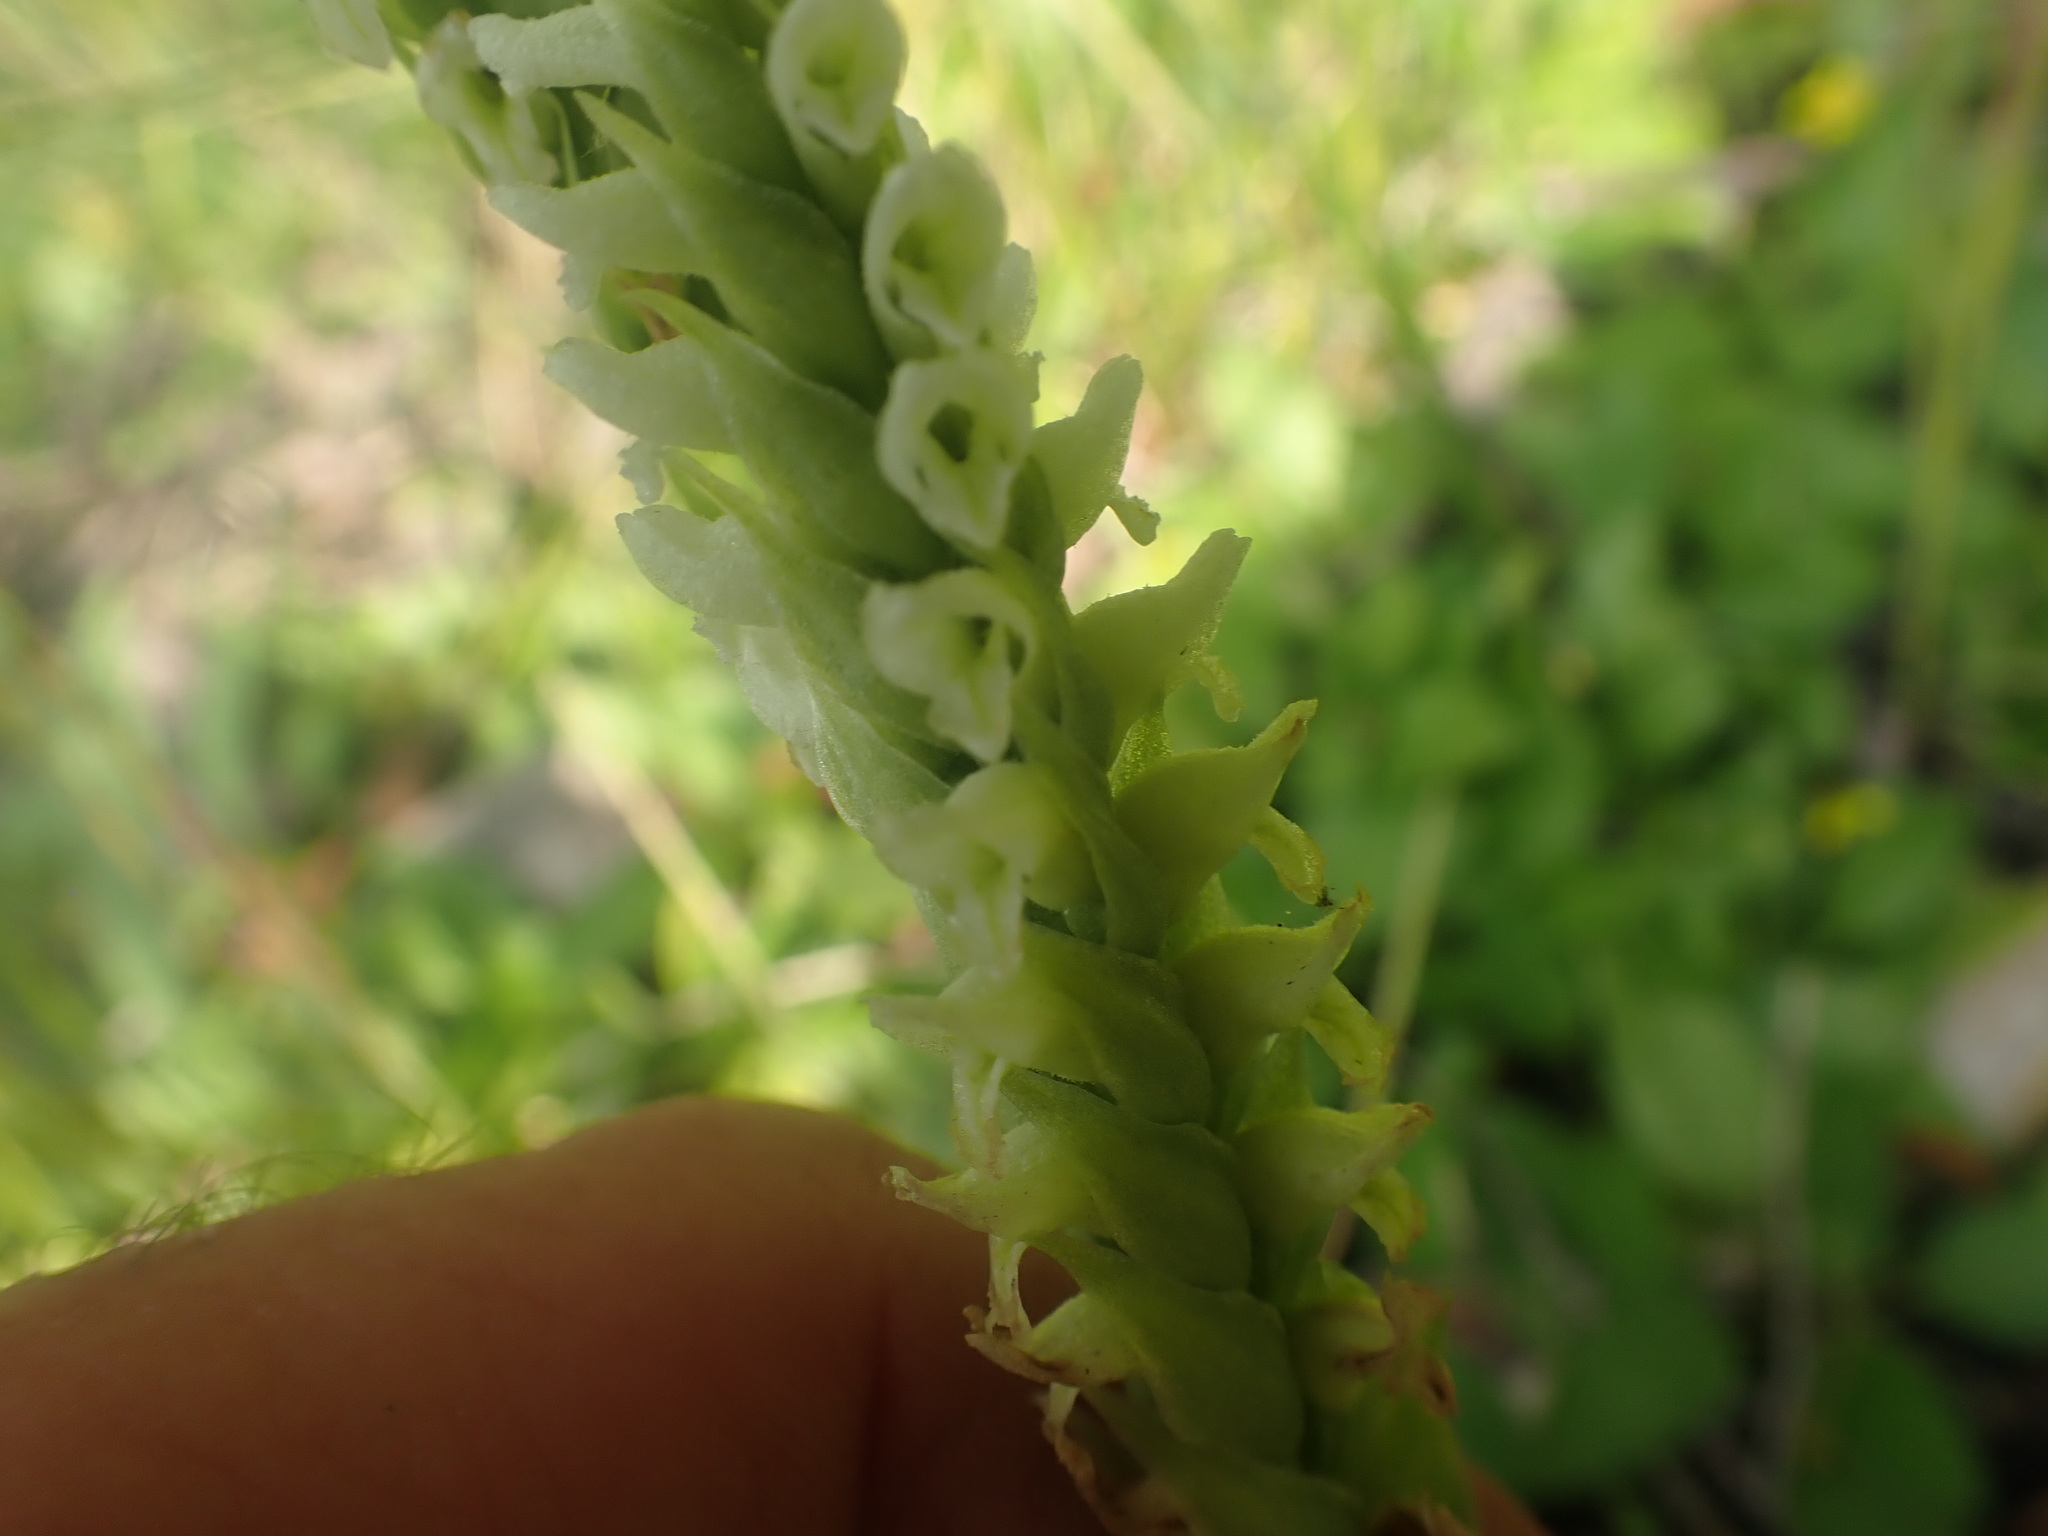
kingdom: Plantae
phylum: Tracheophyta
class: Liliopsida
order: Asparagales
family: Orchidaceae
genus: Spiranthes
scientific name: Spiranthes romanzoffiana
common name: Irish lady's-tresses
